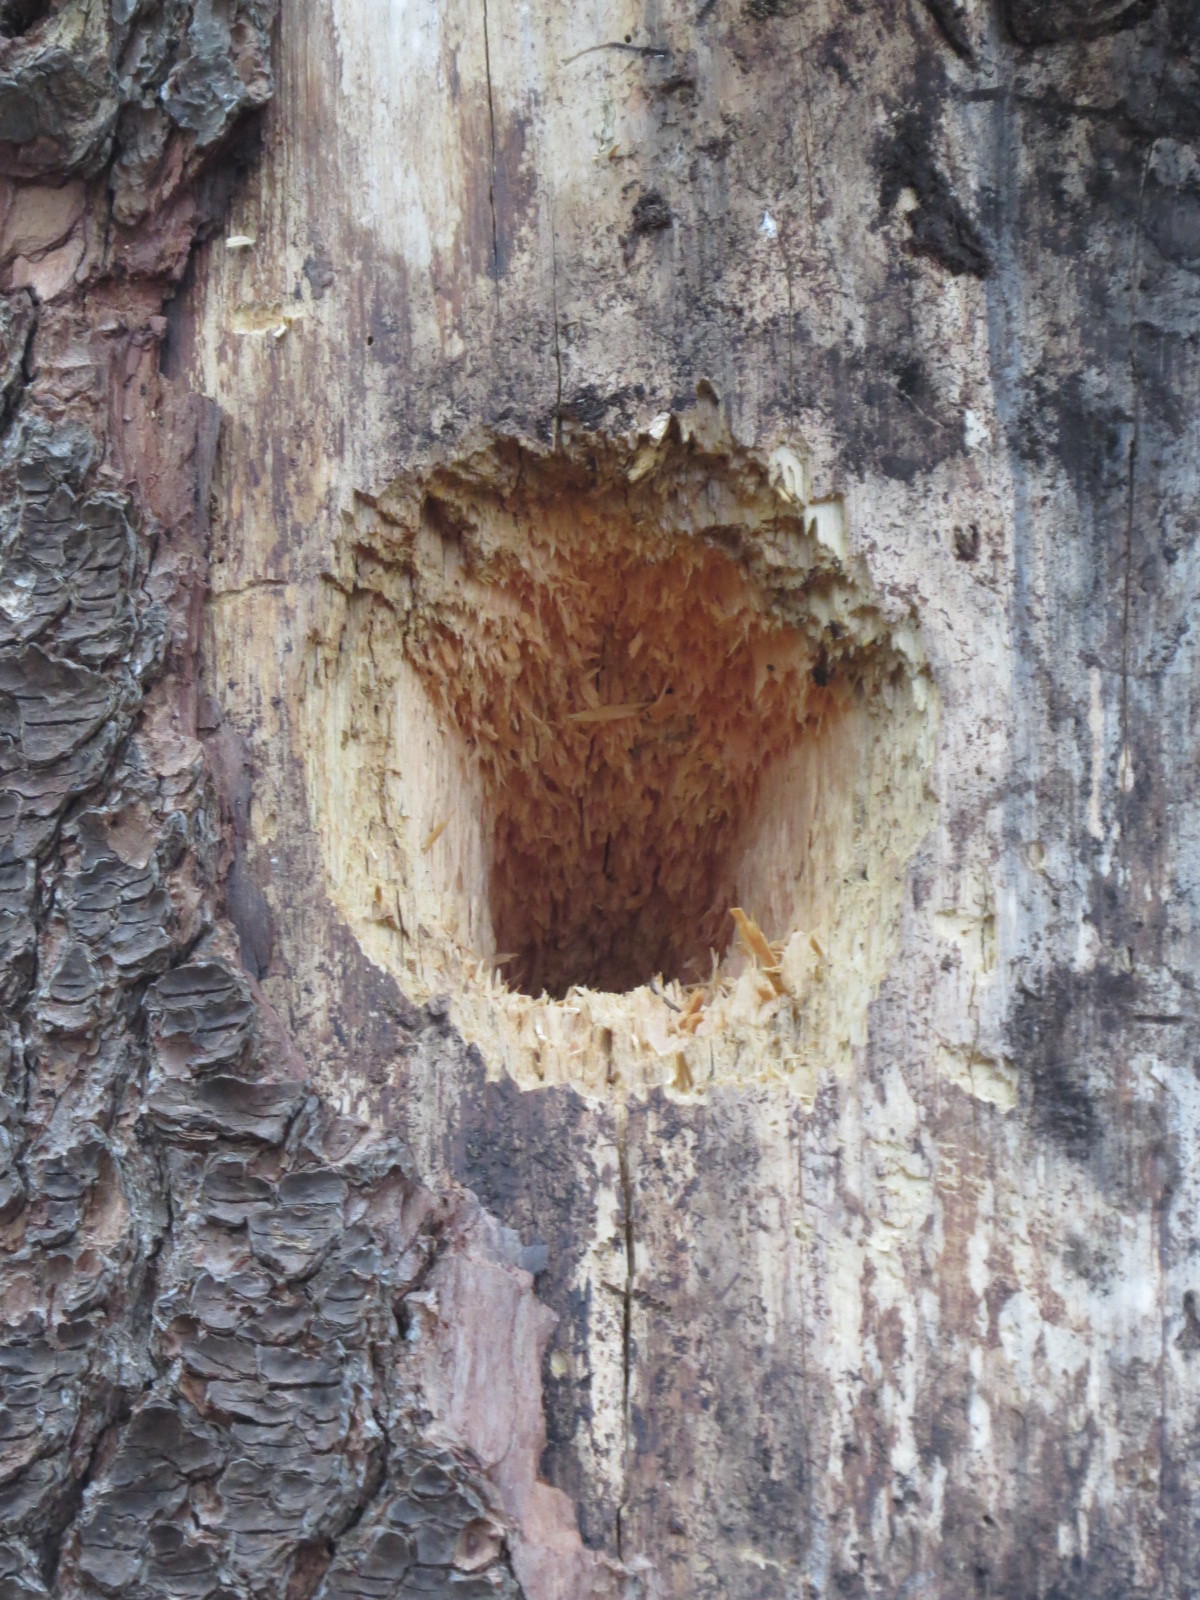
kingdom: Animalia
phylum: Chordata
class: Aves
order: Piciformes
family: Picidae
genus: Dryocopus
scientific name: Dryocopus pileatus
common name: Pileated woodpecker
